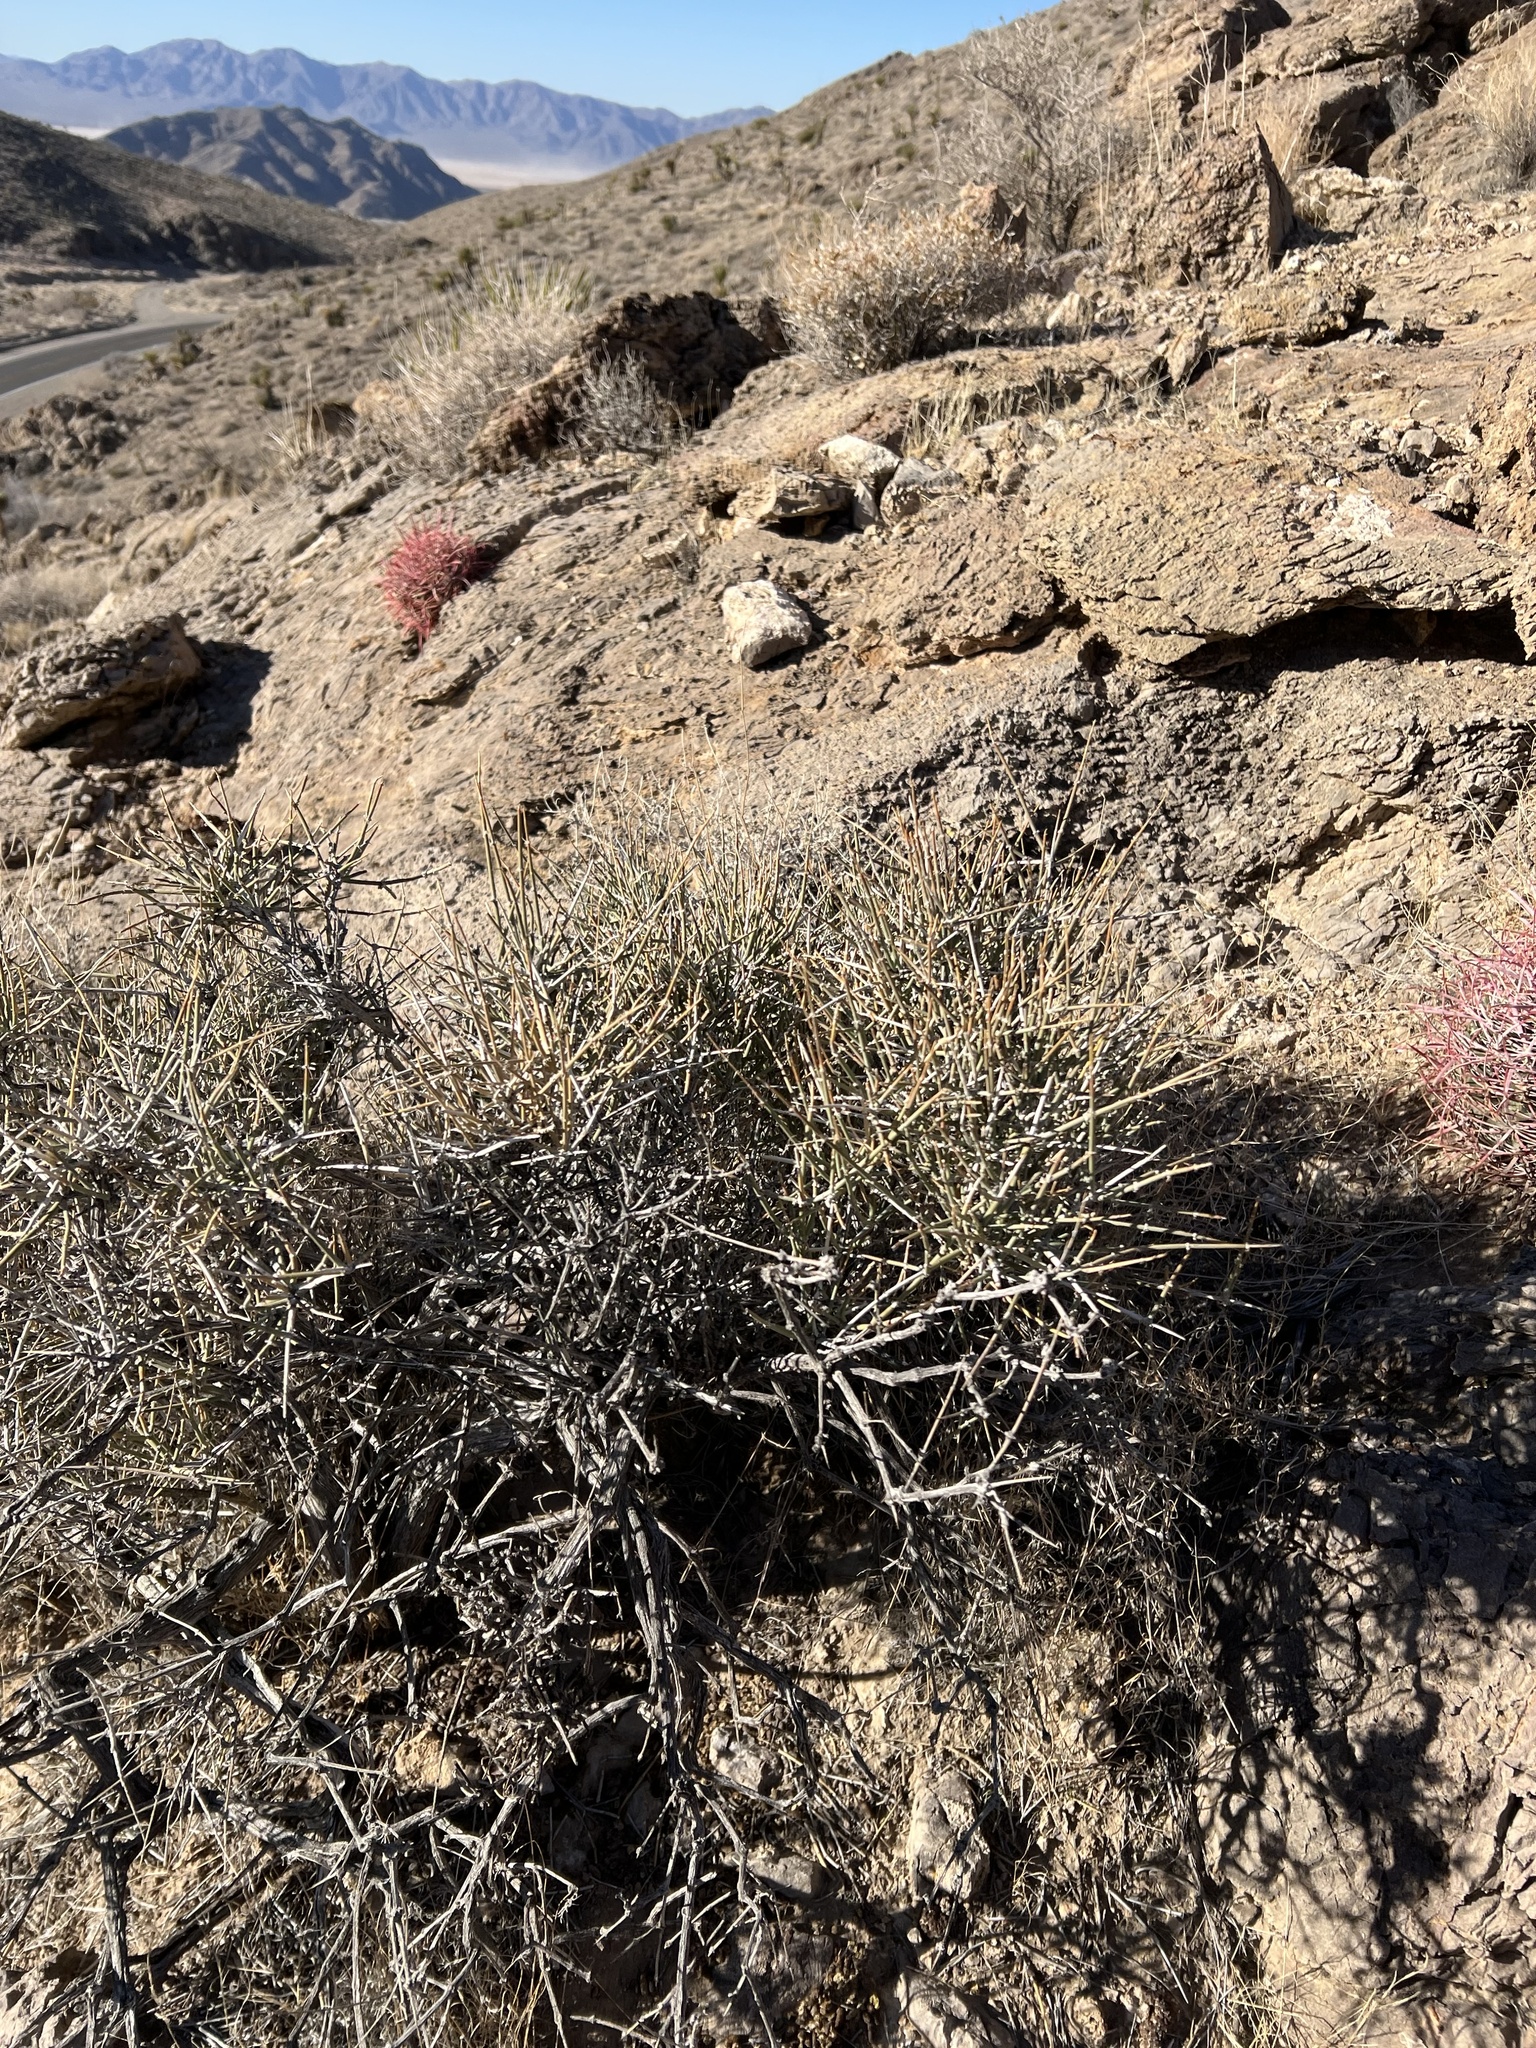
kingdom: Plantae
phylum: Tracheophyta
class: Gnetopsida
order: Ephedrales
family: Ephedraceae
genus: Ephedra
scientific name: Ephedra nevadensis
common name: Gray ephedra
